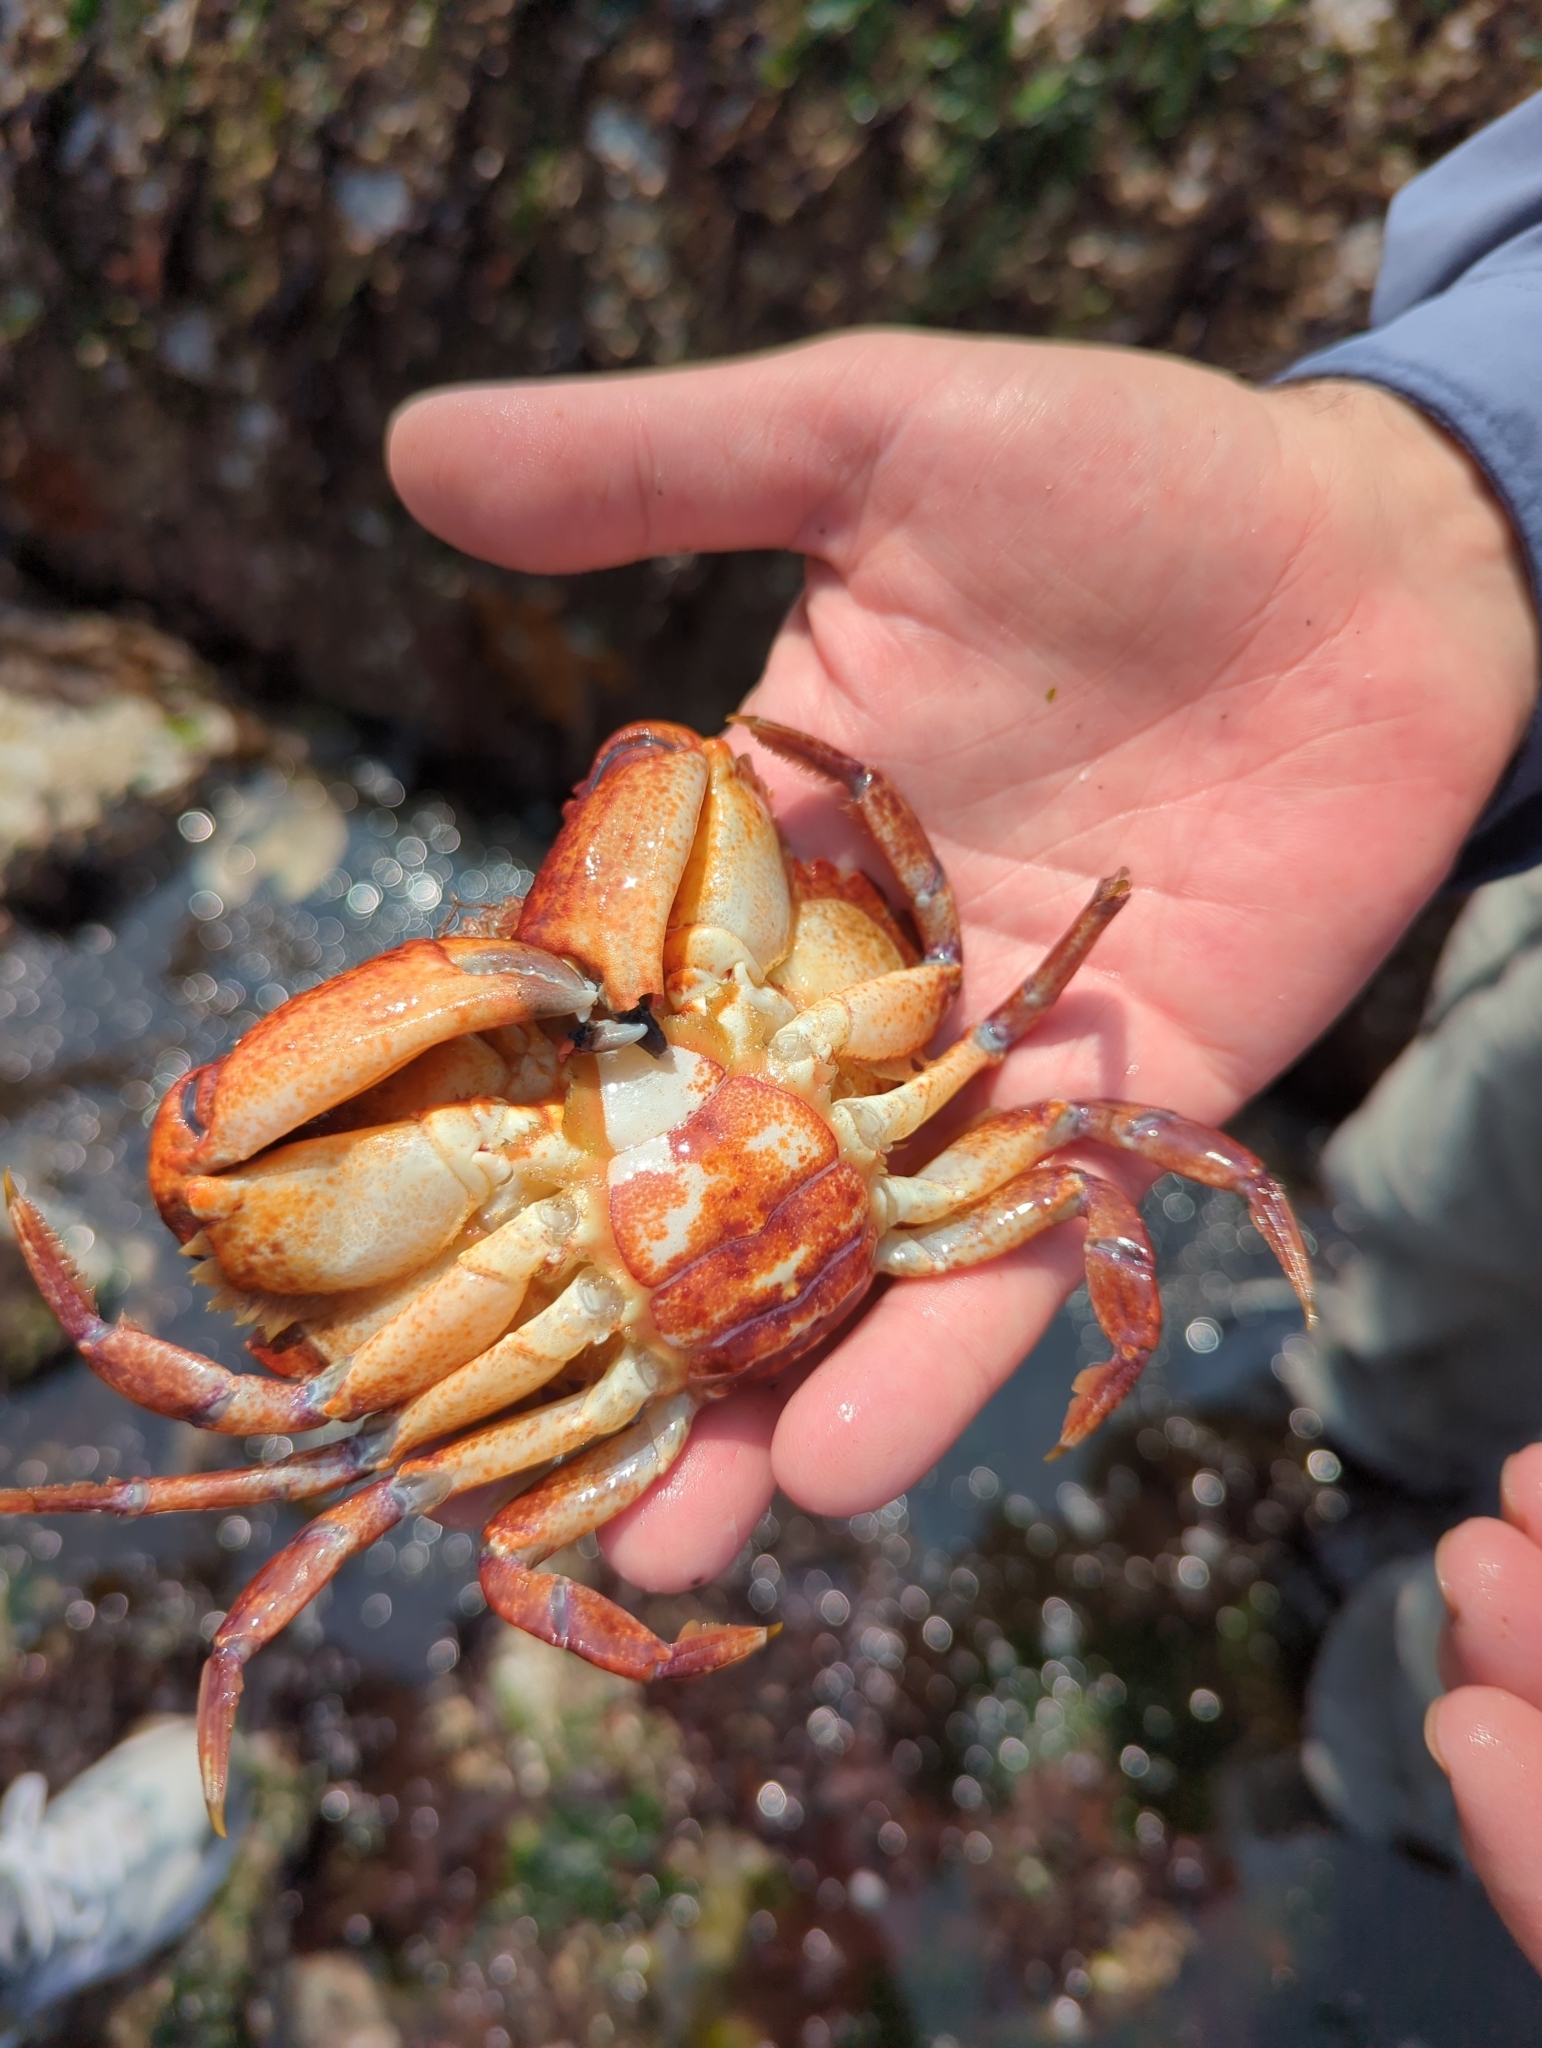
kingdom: Animalia
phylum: Arthropoda
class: Malacostraca
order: Decapoda
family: Cancridae
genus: Cancer
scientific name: Cancer productus
